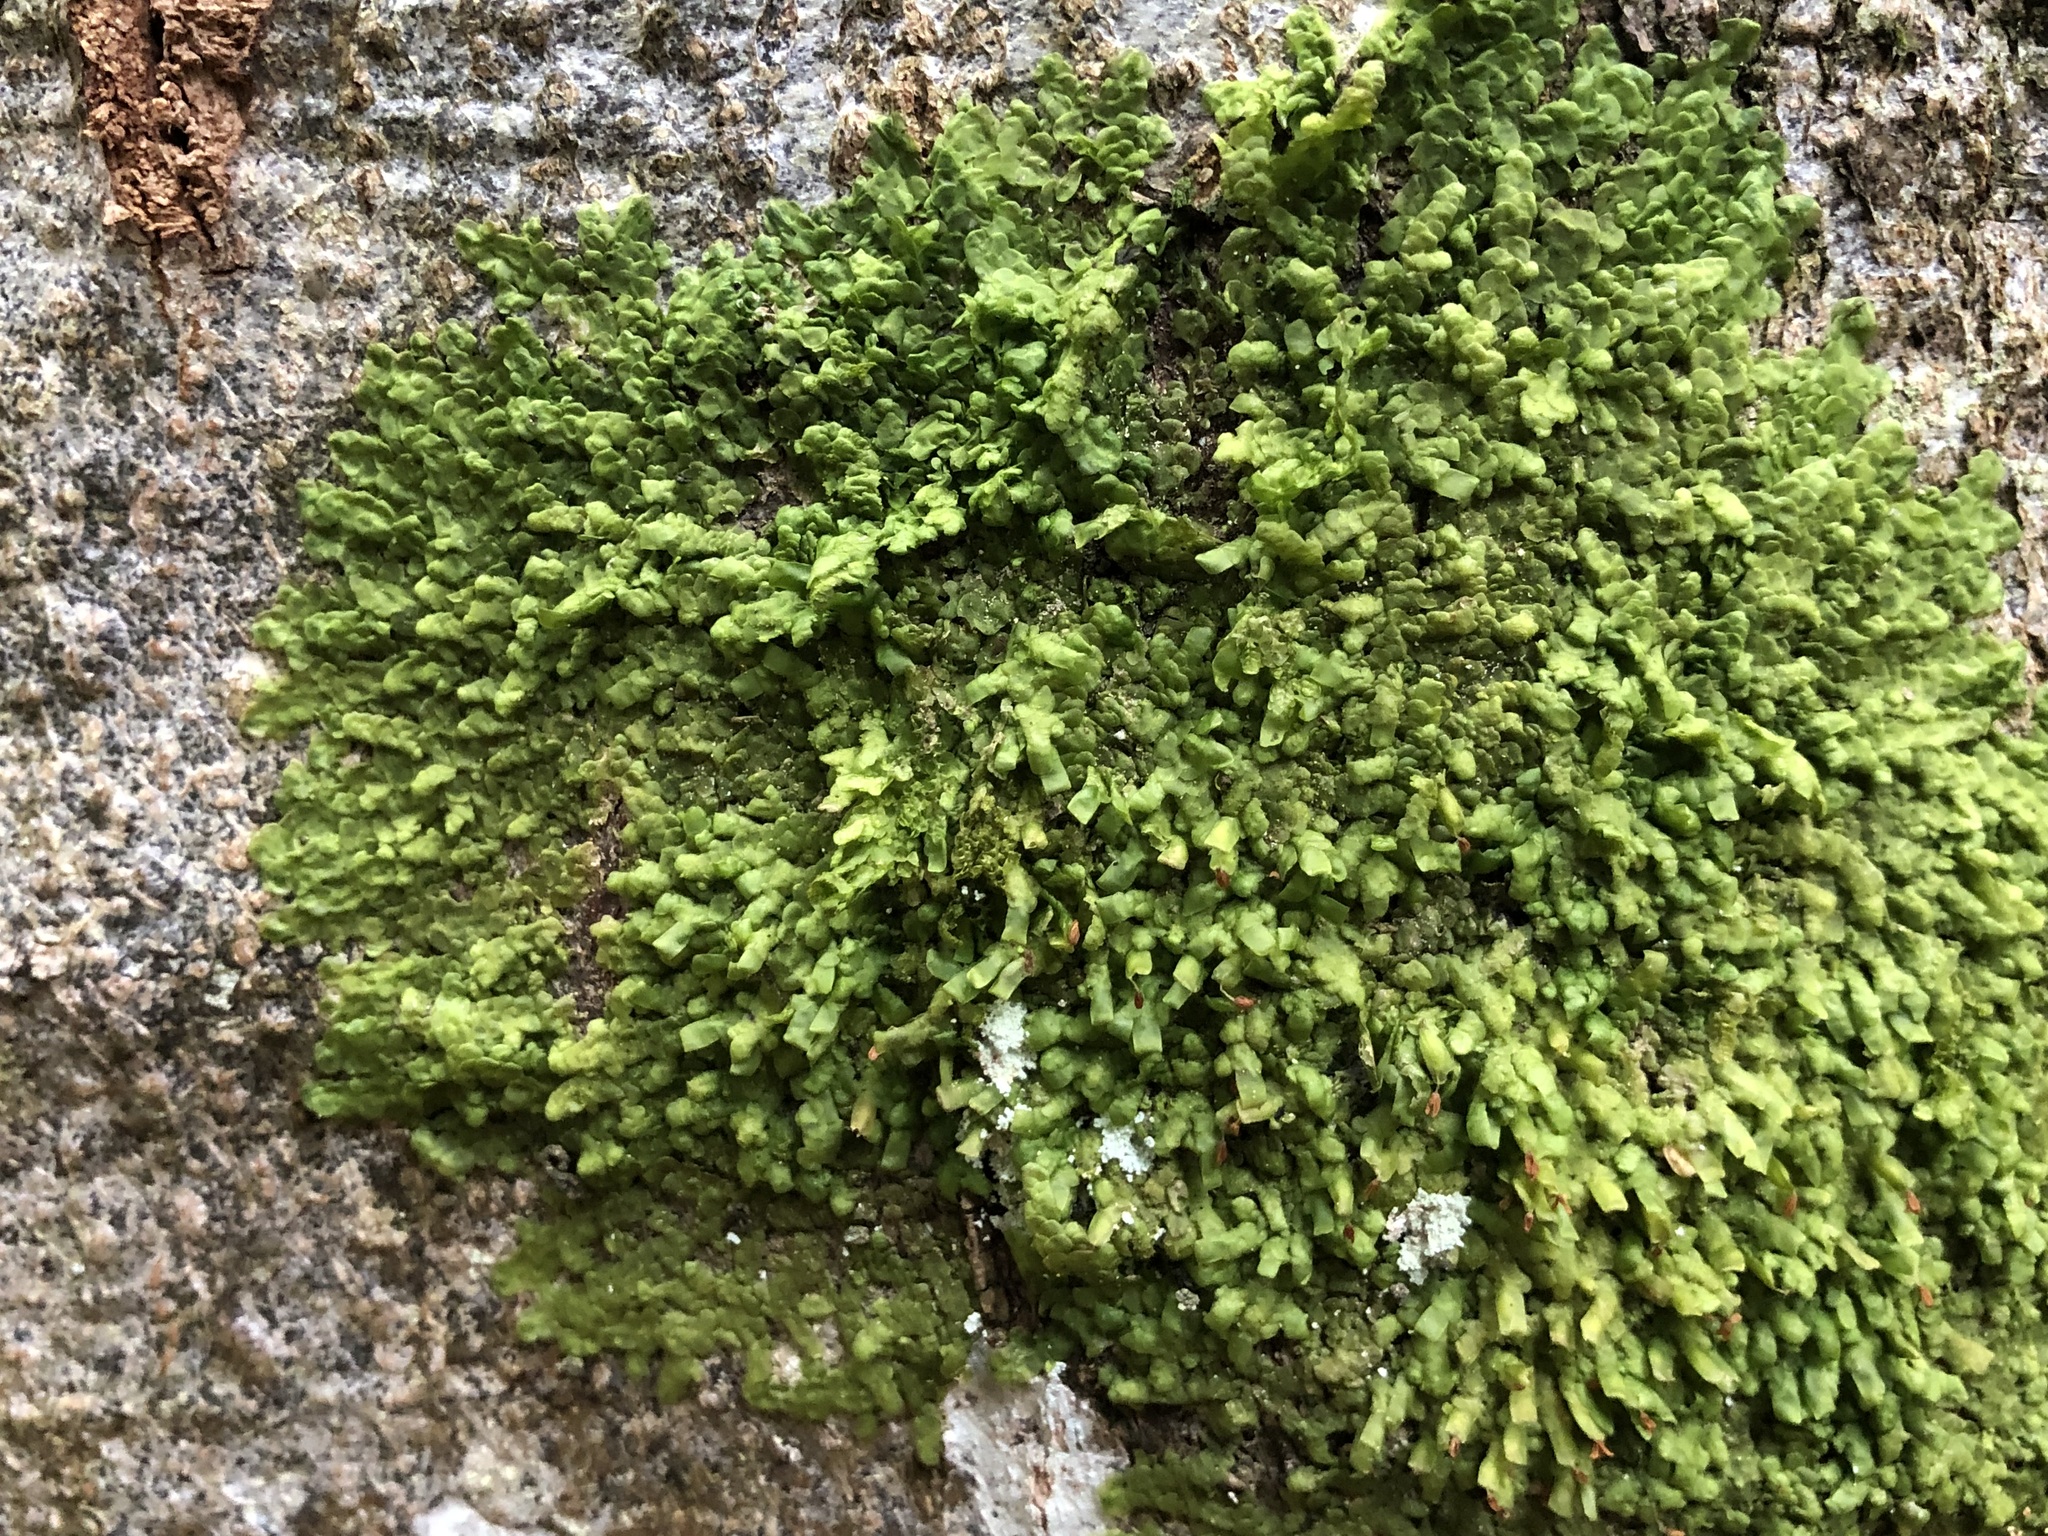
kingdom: Plantae
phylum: Marchantiophyta
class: Jungermanniopsida
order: Porellales
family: Radulaceae
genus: Radula
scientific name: Radula complanata
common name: Flat-leaved scalewort
